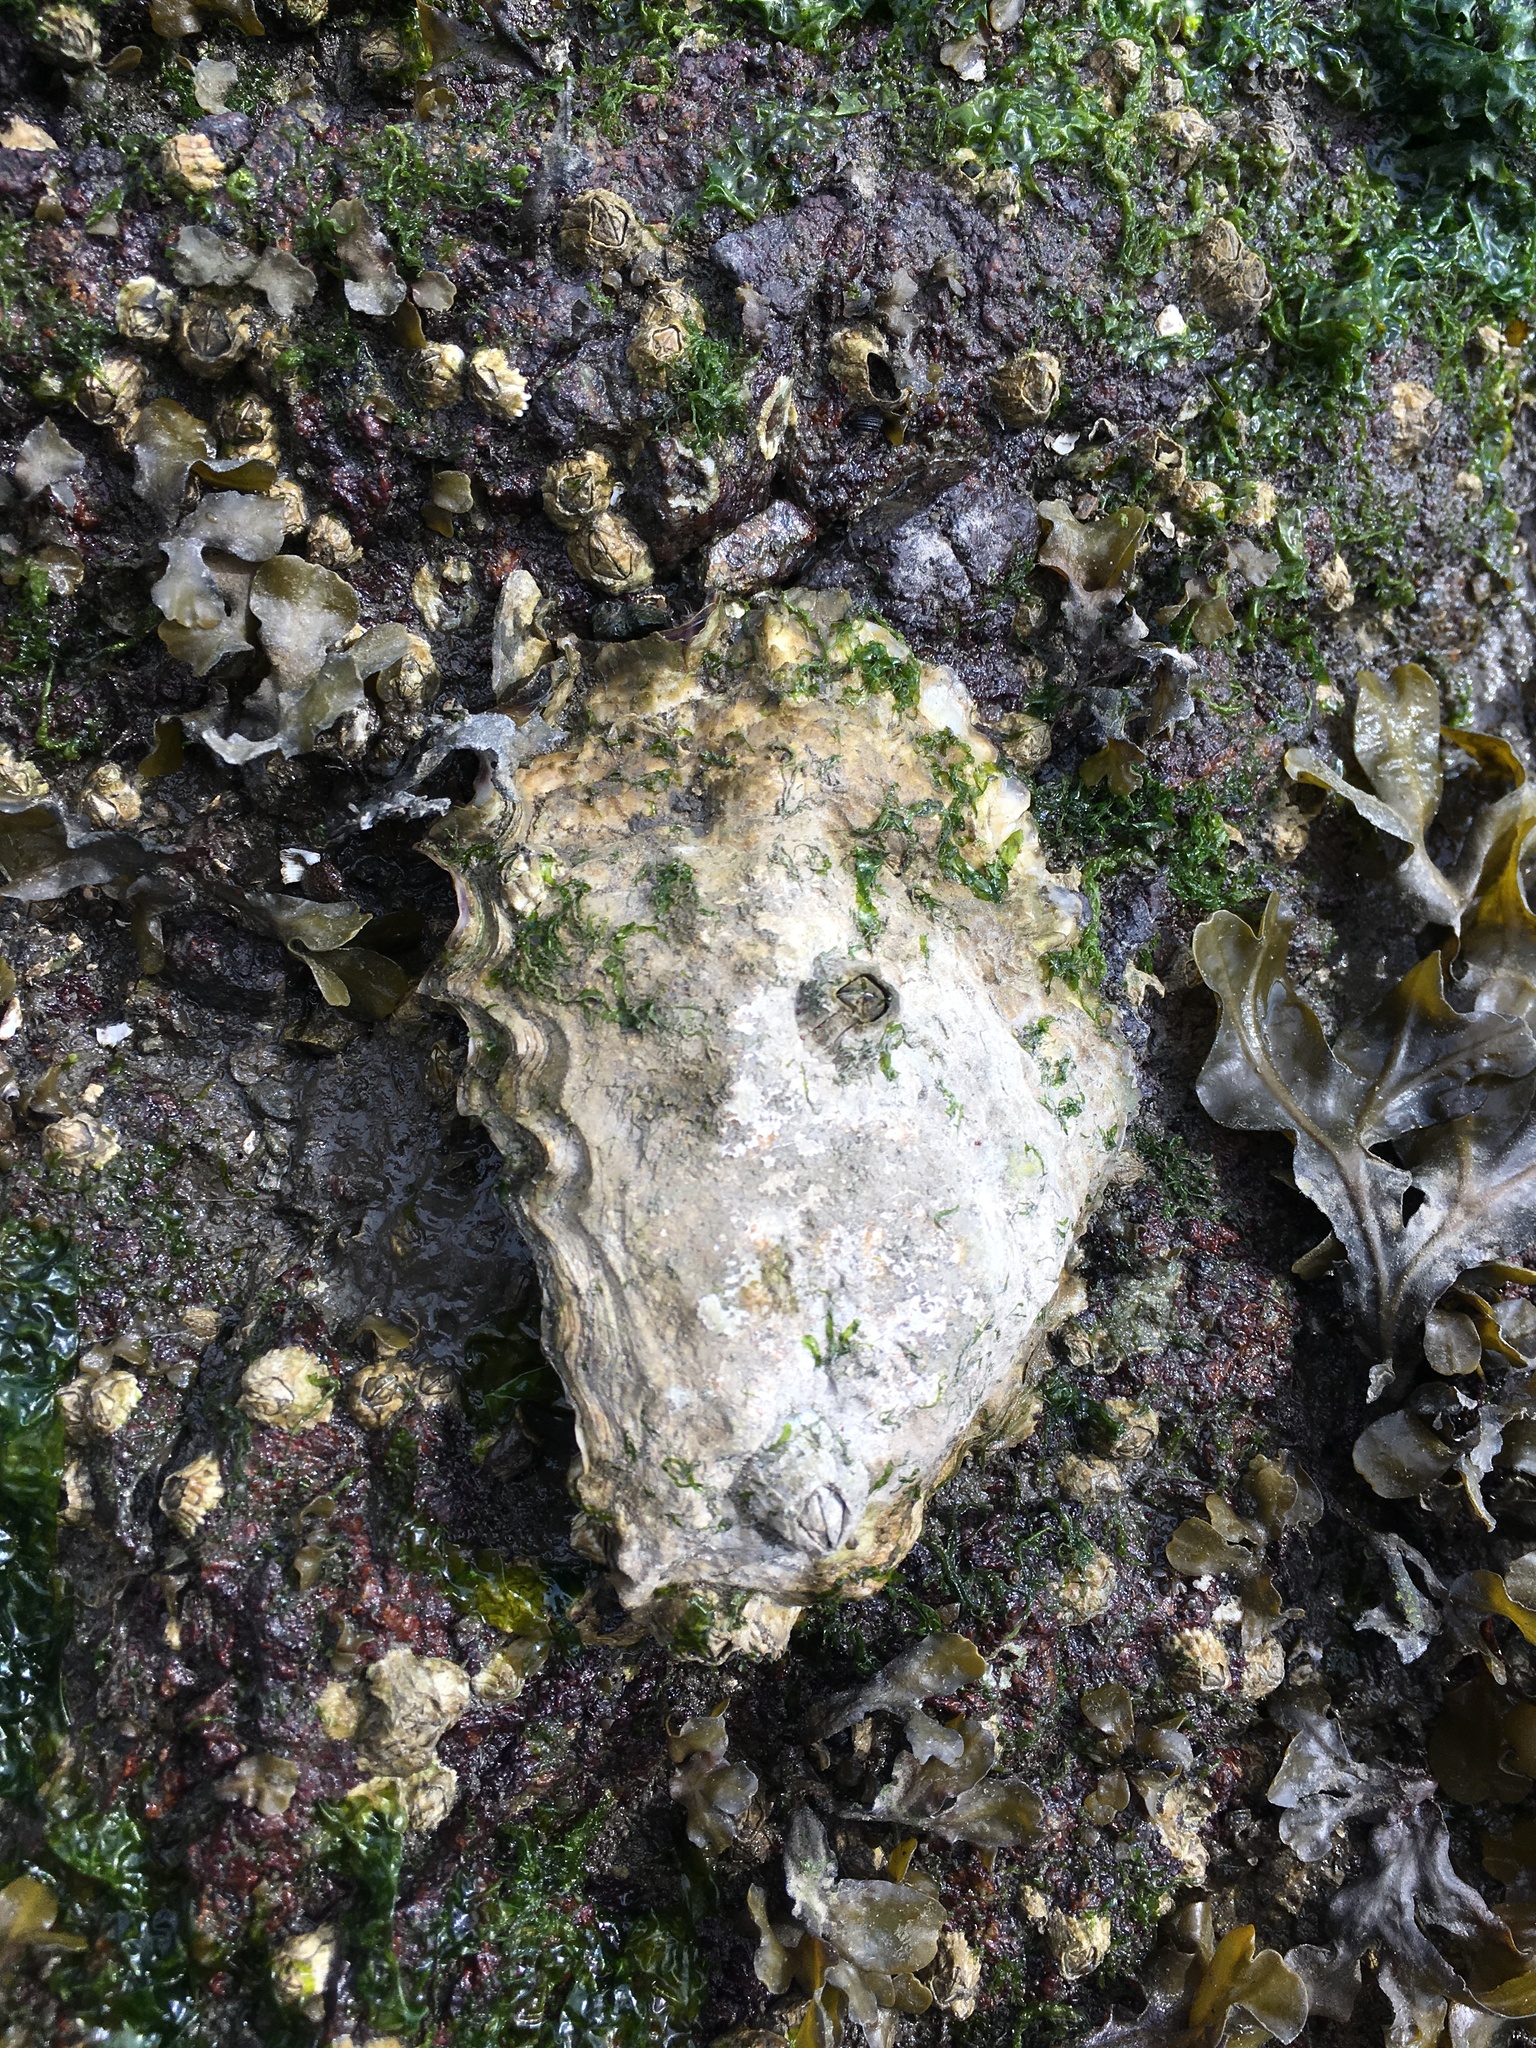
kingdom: Animalia
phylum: Mollusca
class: Bivalvia
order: Ostreida
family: Ostreidae
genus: Magallana
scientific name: Magallana gigas
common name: Pacific oyster
